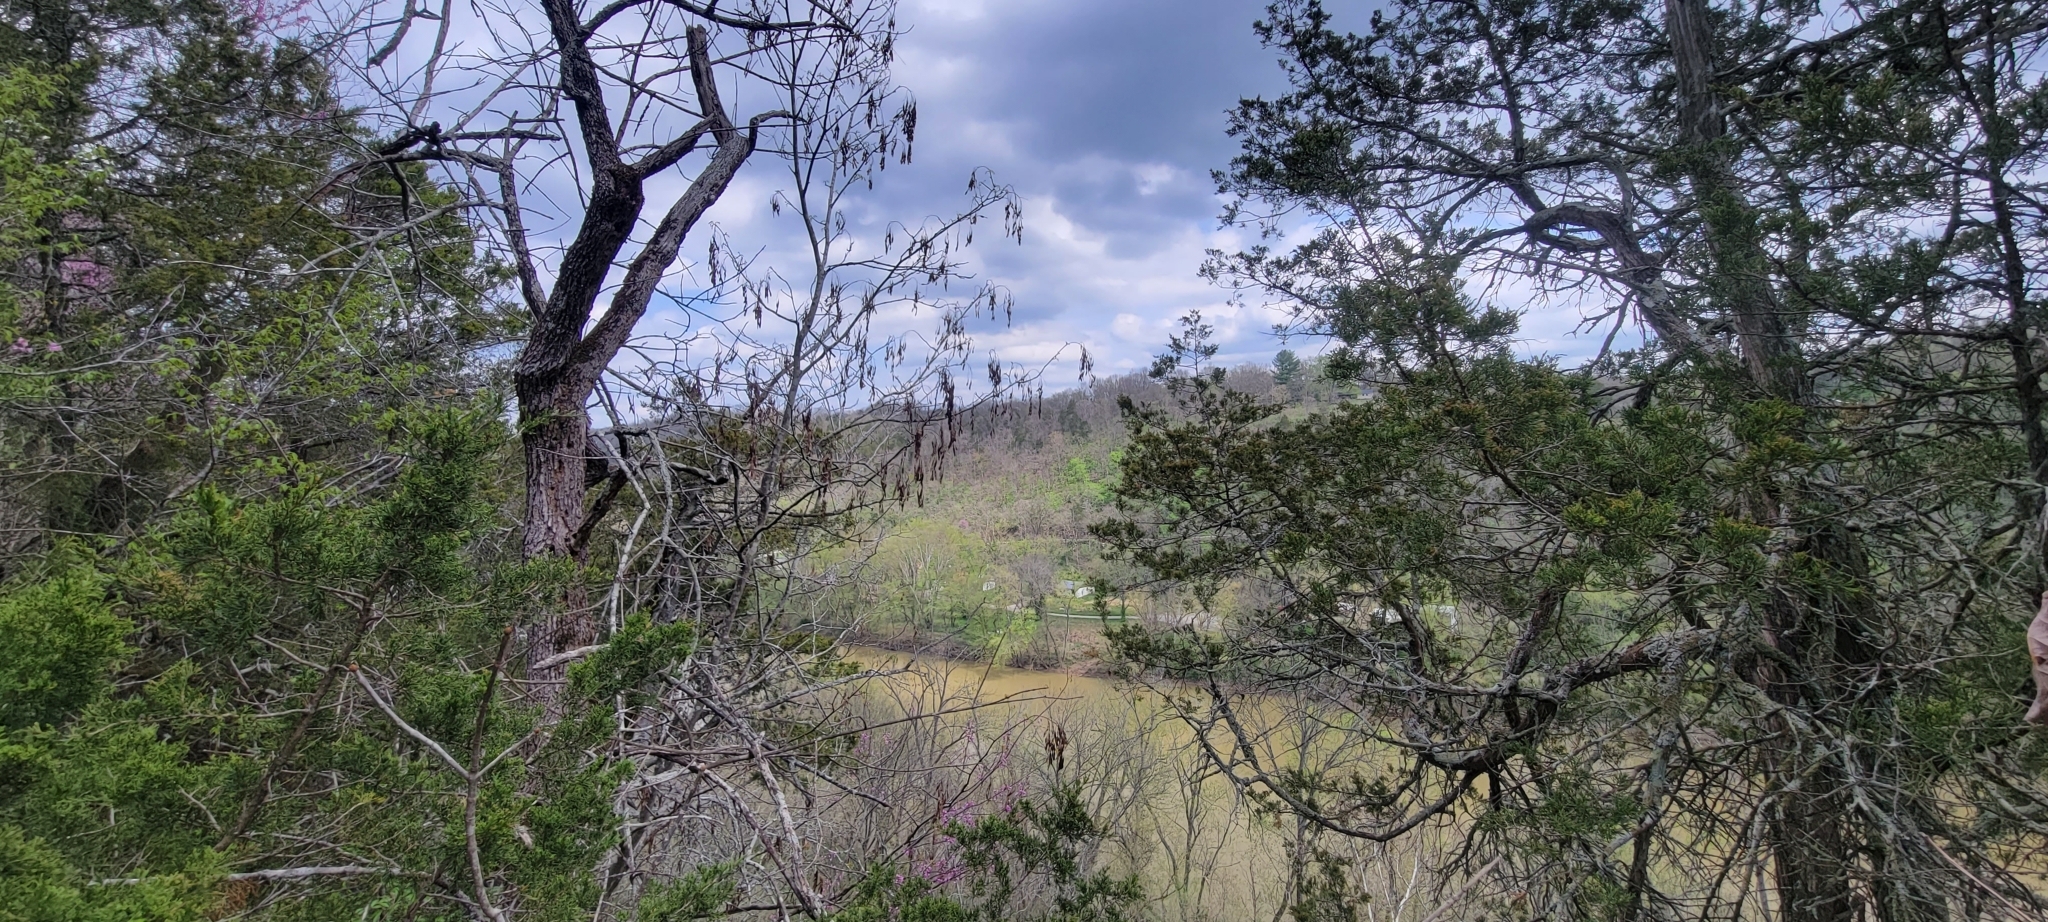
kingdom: Plantae
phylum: Tracheophyta
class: Magnoliopsida
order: Fabales
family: Fabaceae
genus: Cladrastis
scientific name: Cladrastis kentukea
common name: Kentucky yellow-wood
